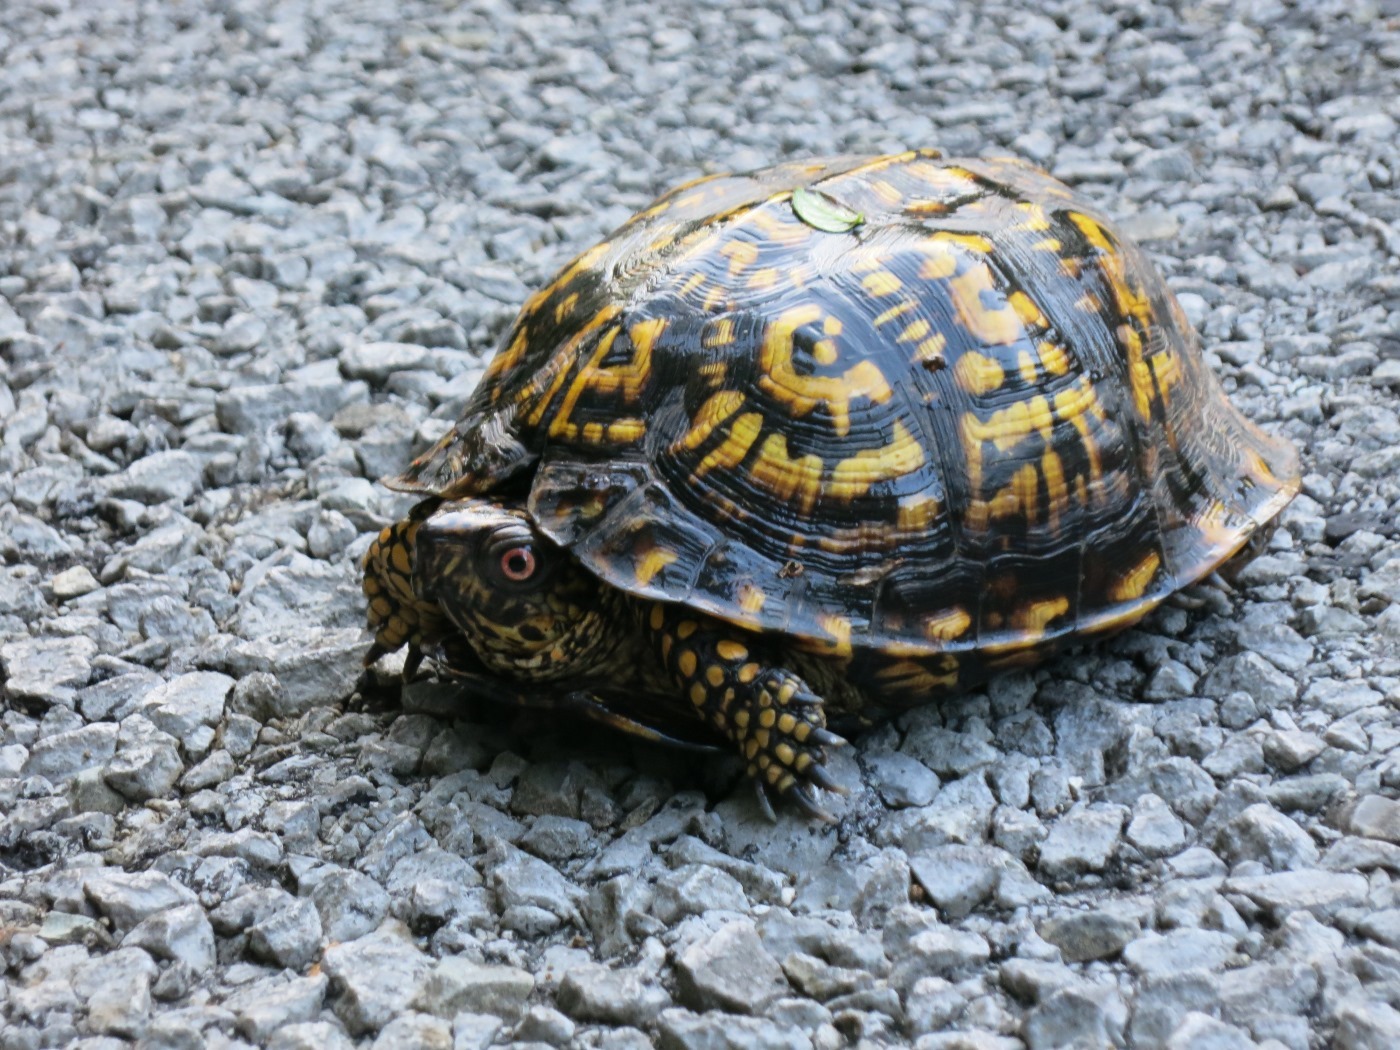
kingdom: Animalia
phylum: Chordata
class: Testudines
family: Emydidae
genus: Terrapene
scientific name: Terrapene carolina
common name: Common box turtle
